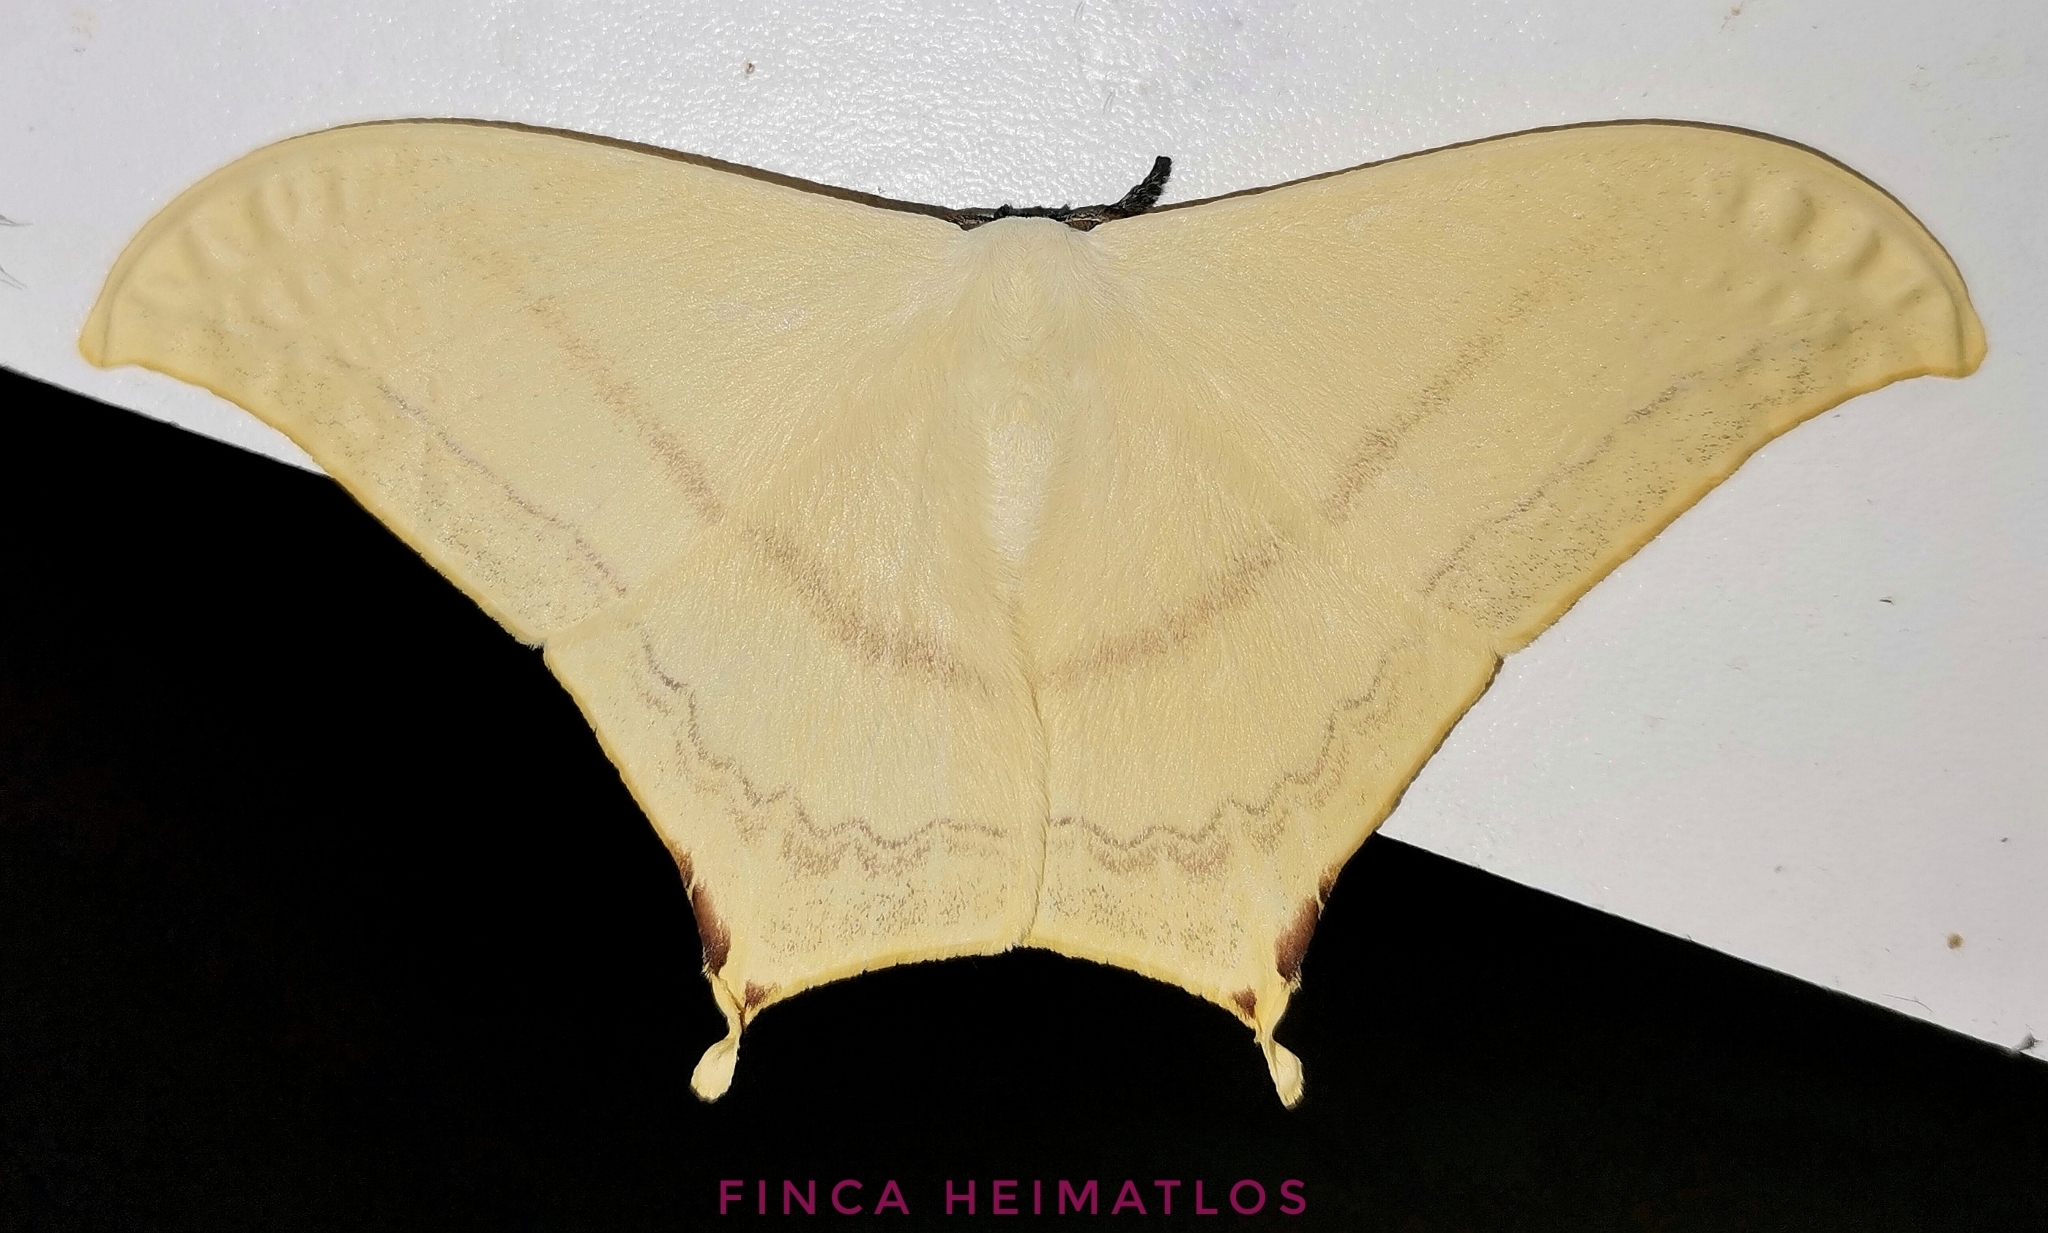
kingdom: Animalia
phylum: Arthropoda
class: Insecta
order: Lepidoptera
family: Saturniidae
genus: Therinia
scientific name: Therinia buckleyi
